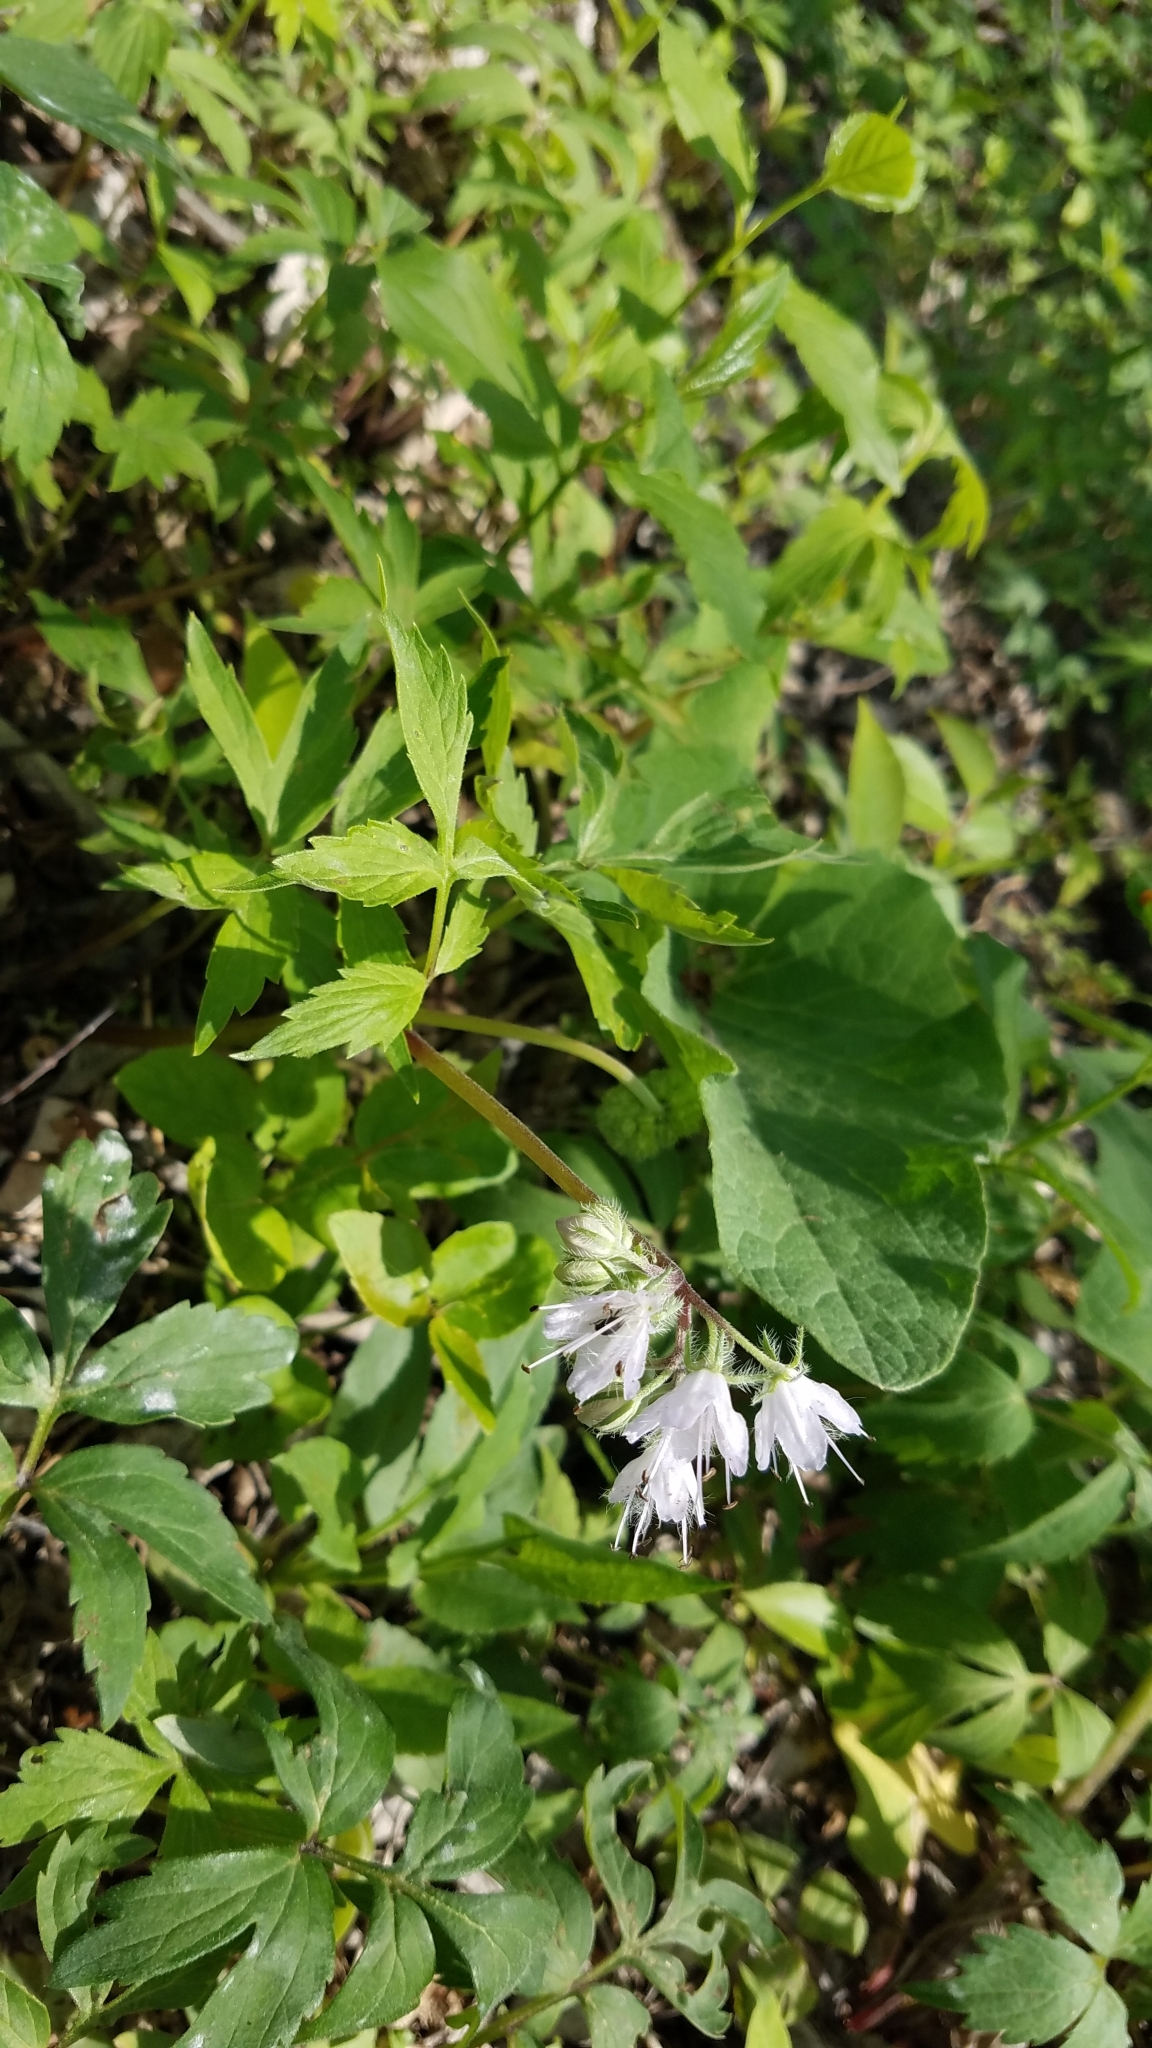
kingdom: Plantae
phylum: Tracheophyta
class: Magnoliopsida
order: Boraginales
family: Hydrophyllaceae
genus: Hydrophyllum
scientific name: Hydrophyllum virginianum
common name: Virginia waterleaf
